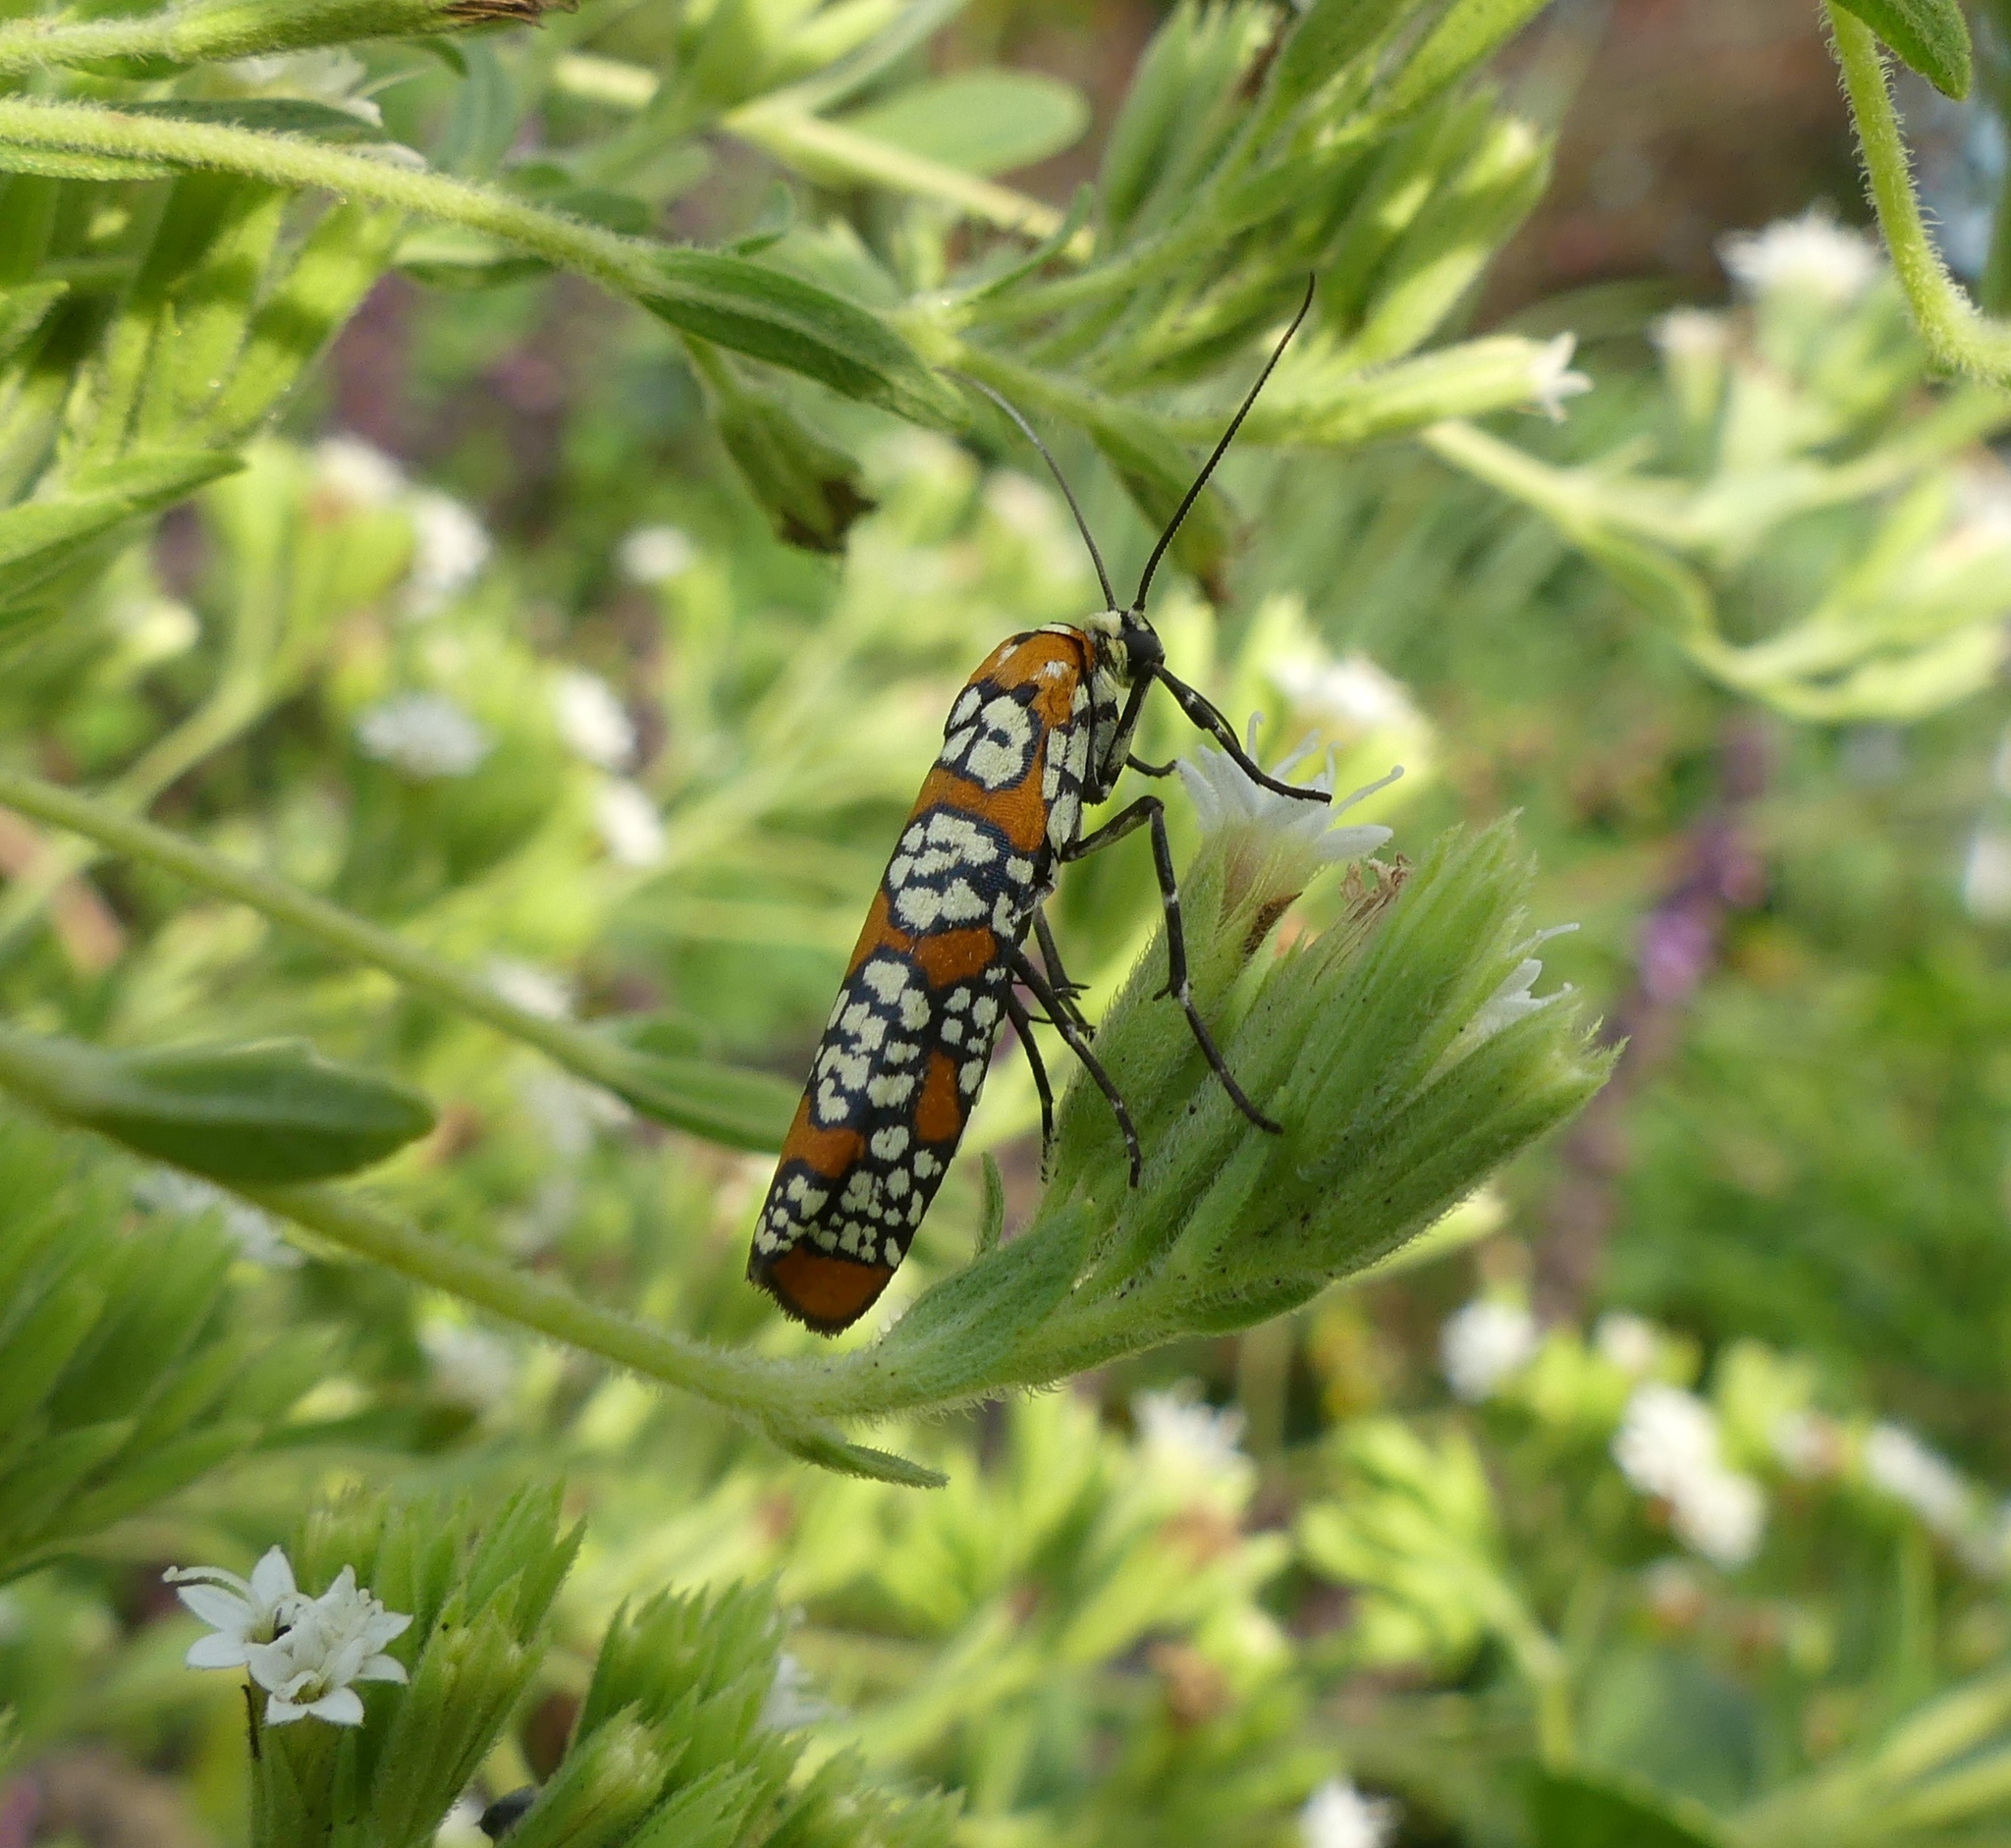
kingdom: Animalia
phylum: Arthropoda
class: Insecta
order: Lepidoptera
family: Attevidae
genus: Atteva
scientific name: Atteva punctella
